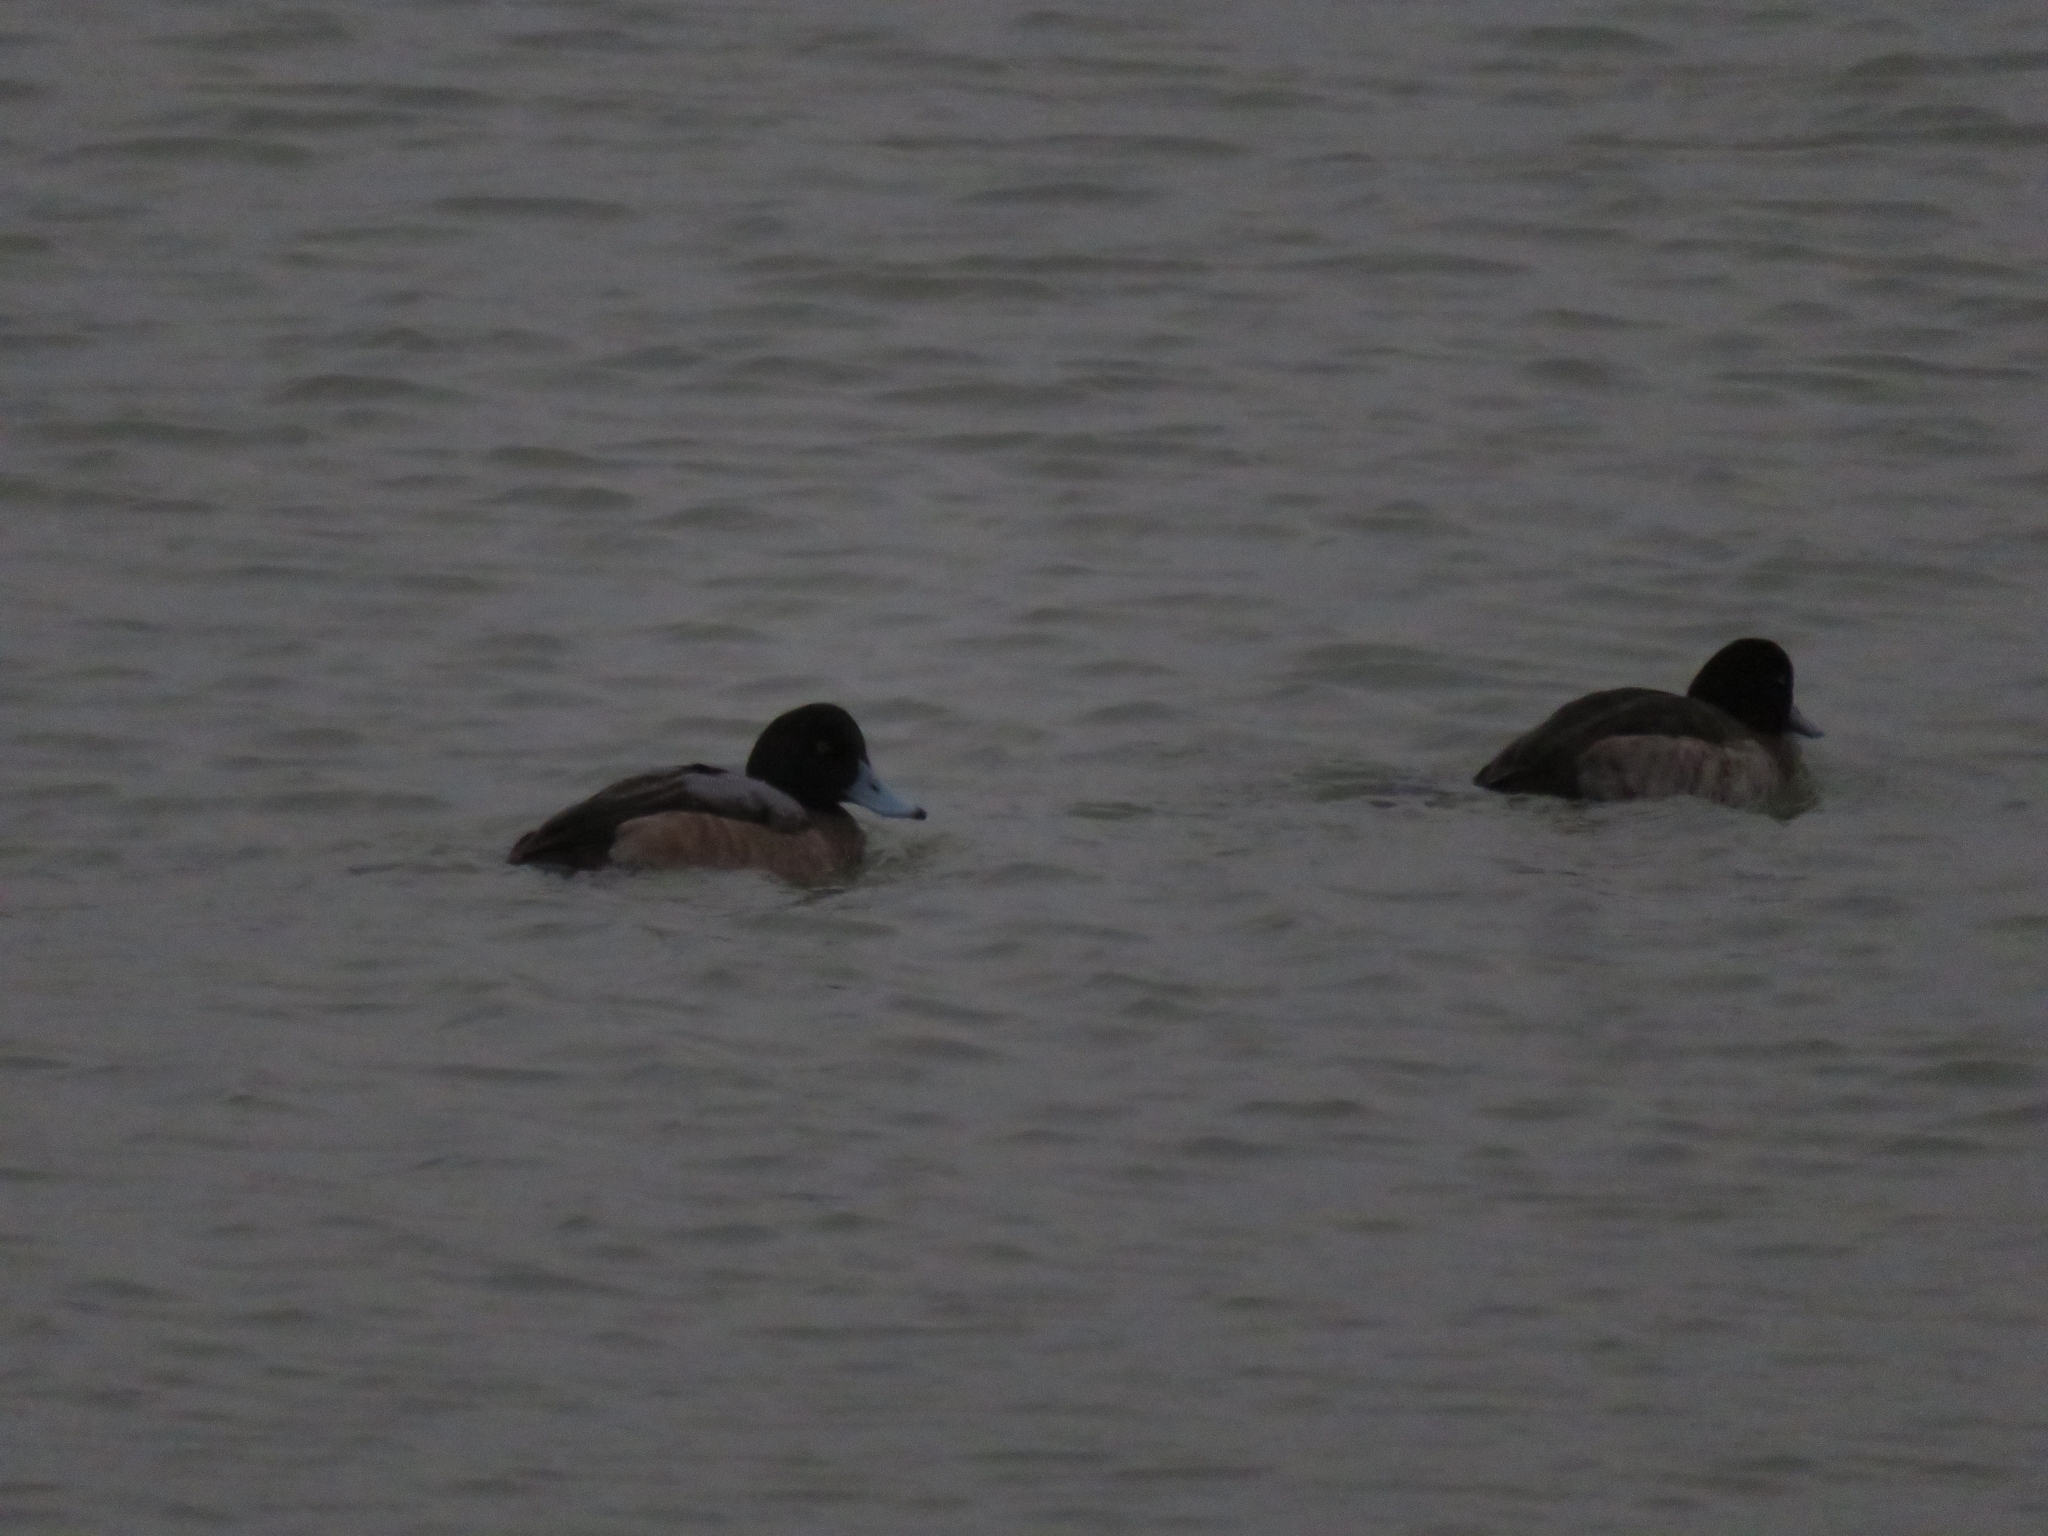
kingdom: Animalia
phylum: Chordata
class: Aves
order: Anseriformes
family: Anatidae
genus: Aythya
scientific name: Aythya marila
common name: Greater scaup
